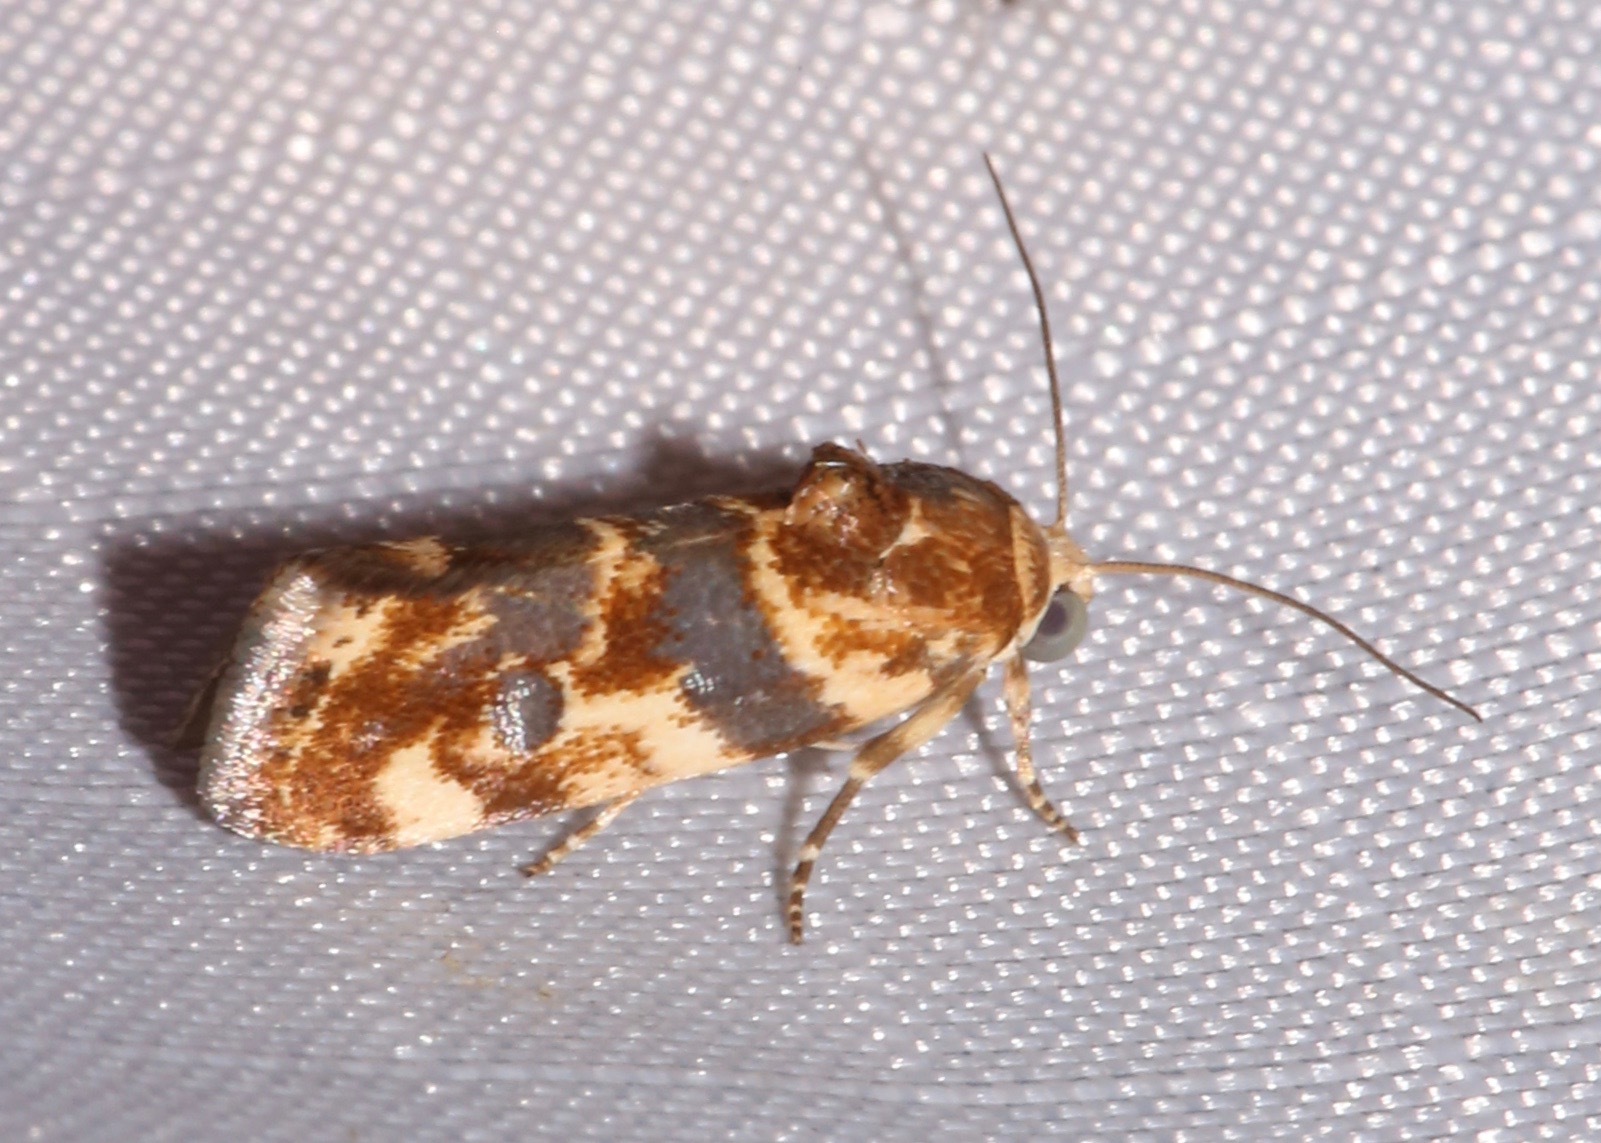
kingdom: Animalia
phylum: Arthropoda
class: Insecta
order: Lepidoptera
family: Noctuidae
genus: Acontia
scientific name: Acontia obatra
